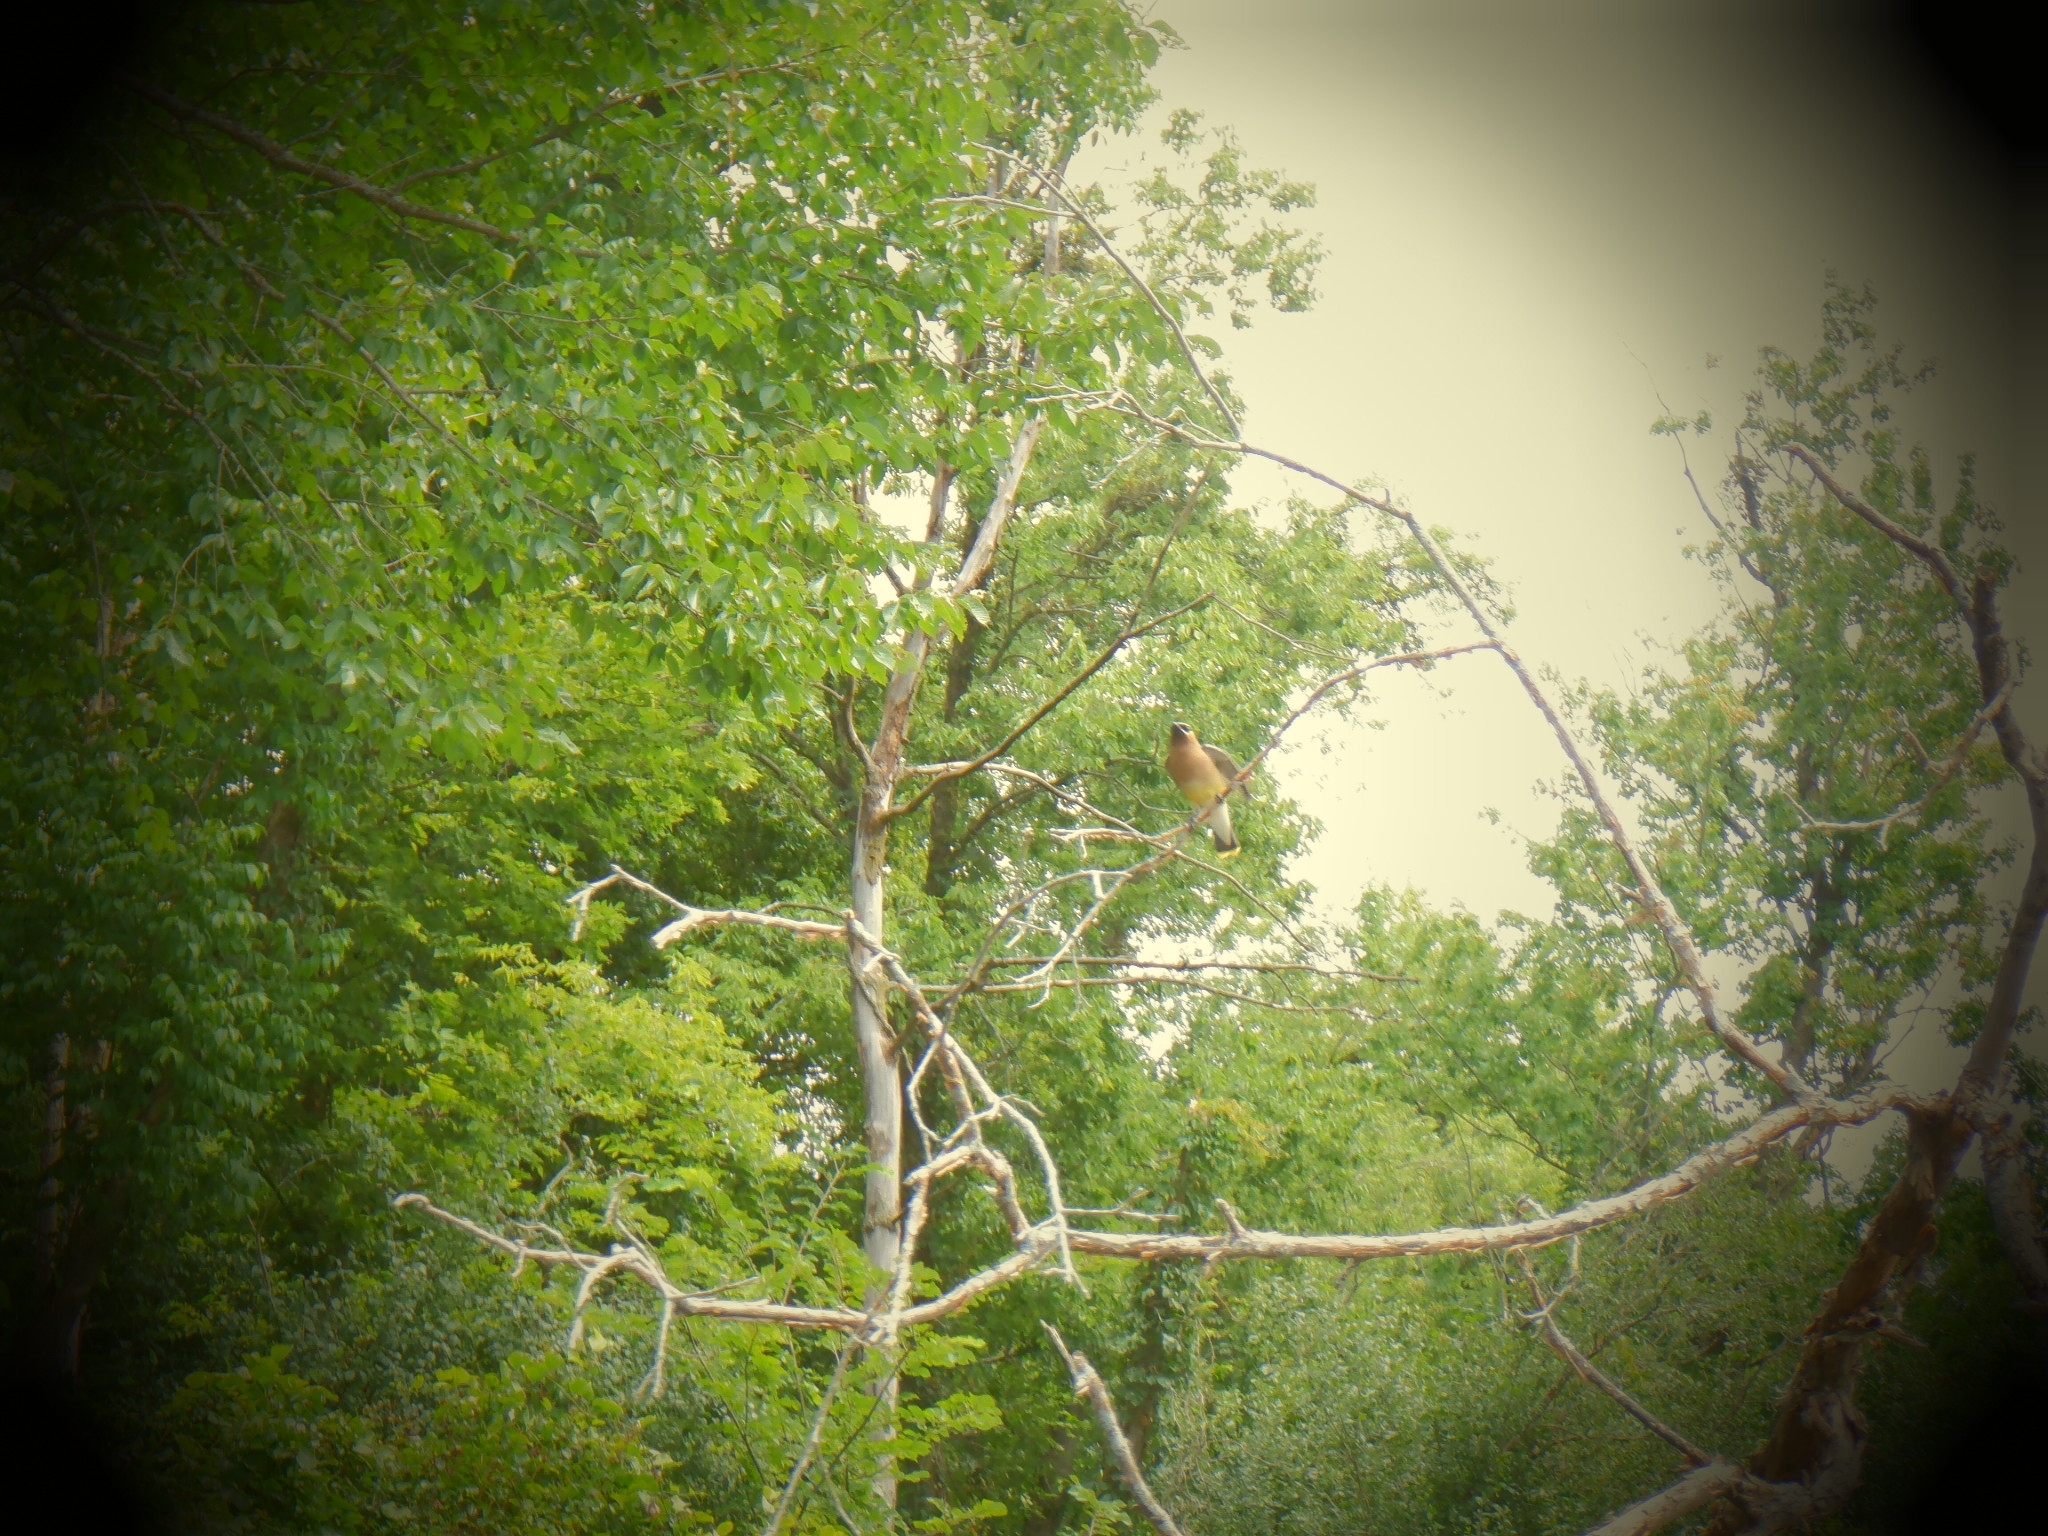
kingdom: Animalia
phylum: Chordata
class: Aves
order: Passeriformes
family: Bombycillidae
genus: Bombycilla
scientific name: Bombycilla cedrorum
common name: Cedar waxwing
